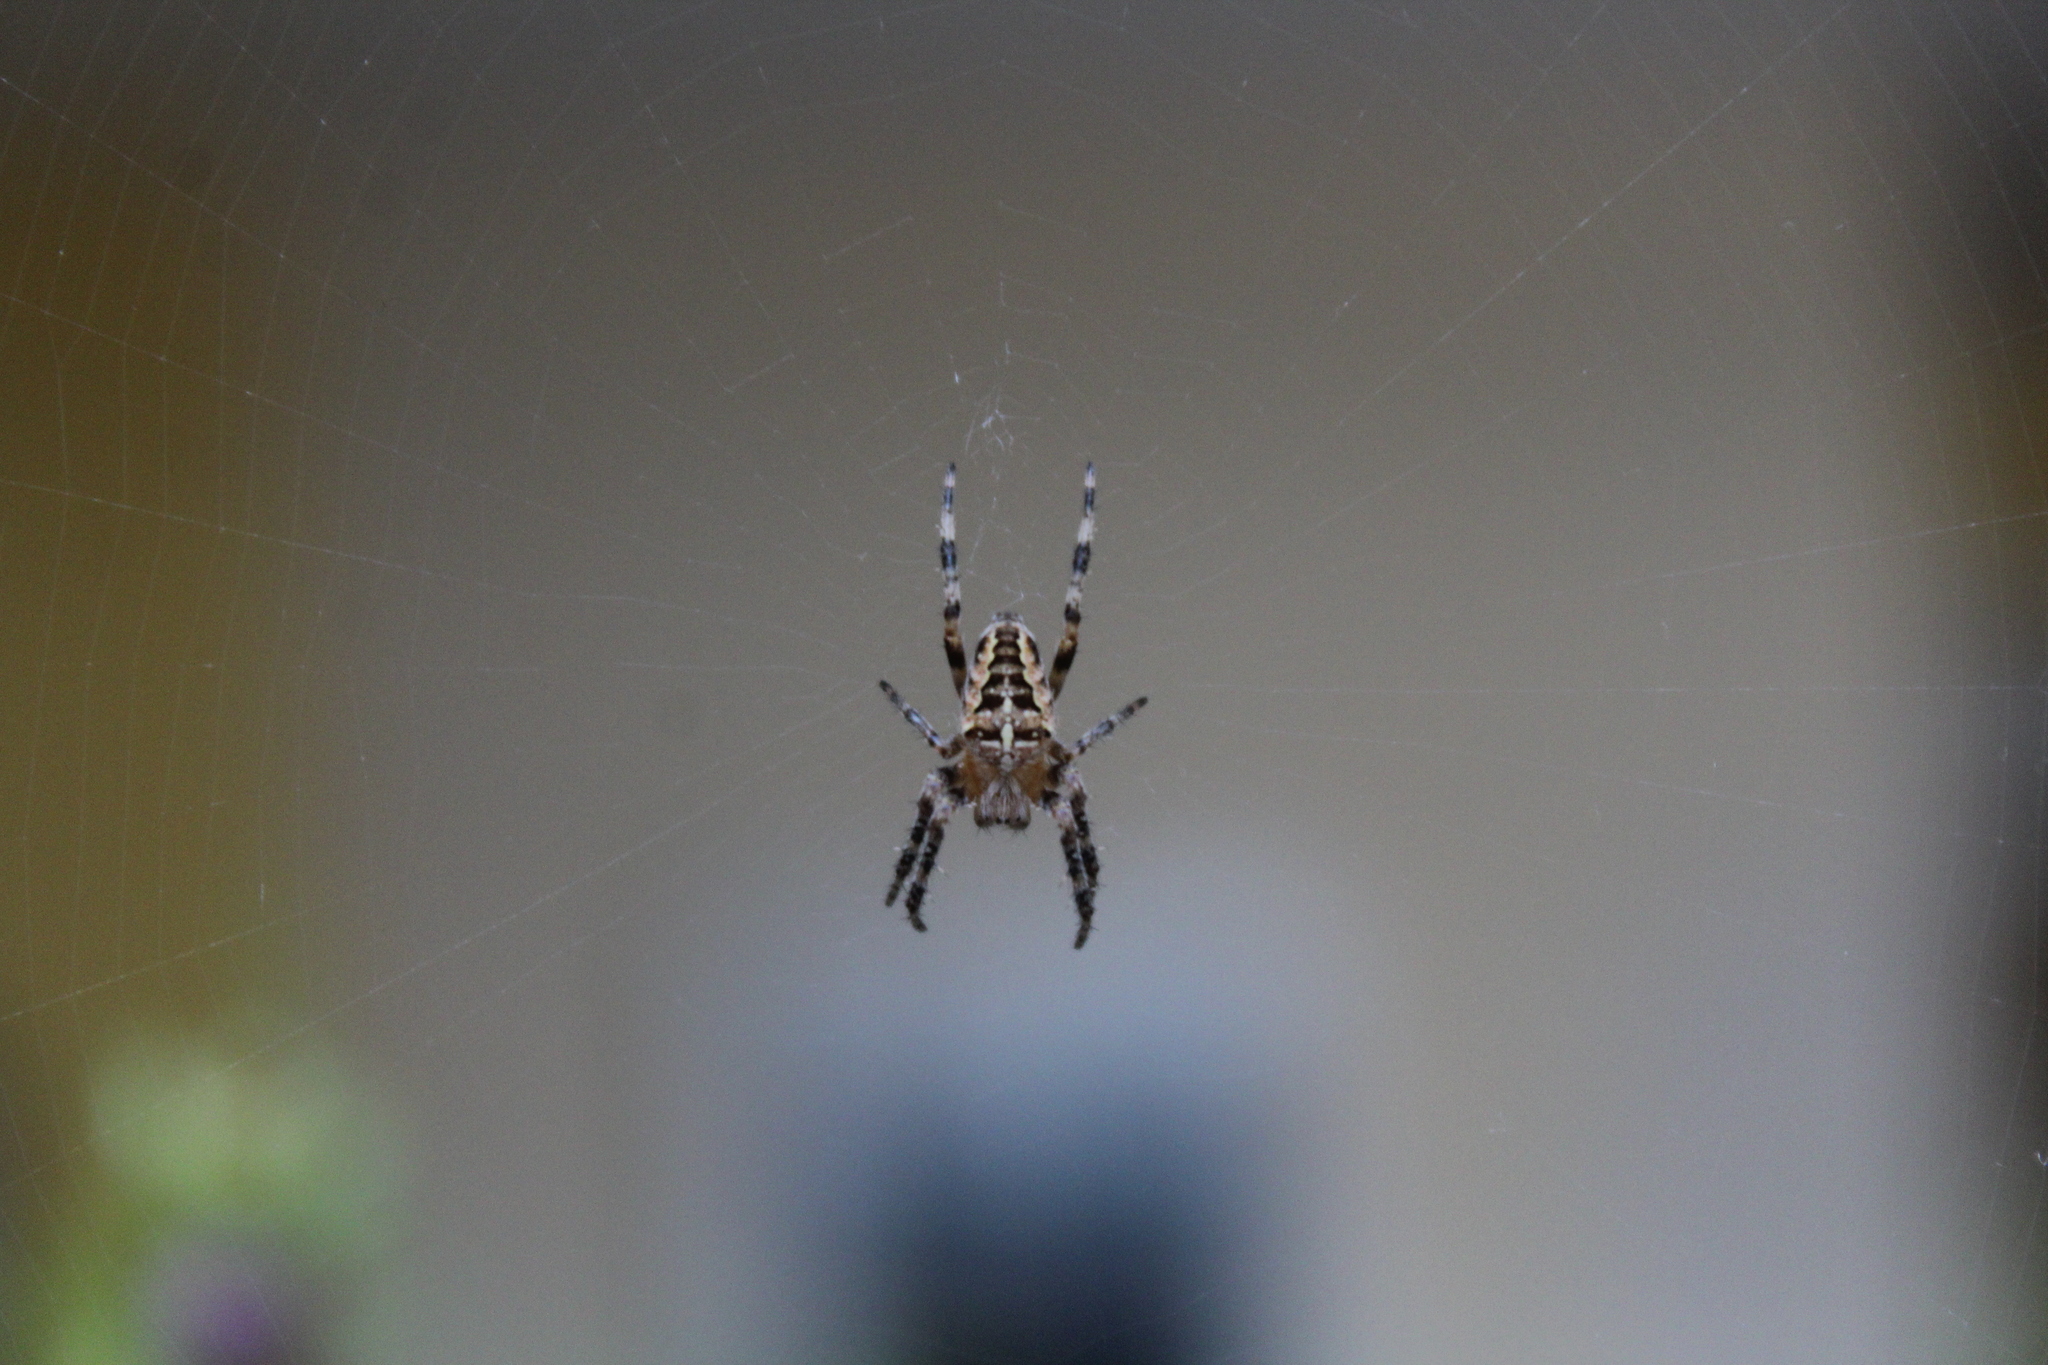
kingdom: Animalia
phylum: Arthropoda
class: Arachnida
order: Araneae
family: Araneidae
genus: Araneus
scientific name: Araneus diadematus
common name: Cross orbweaver
